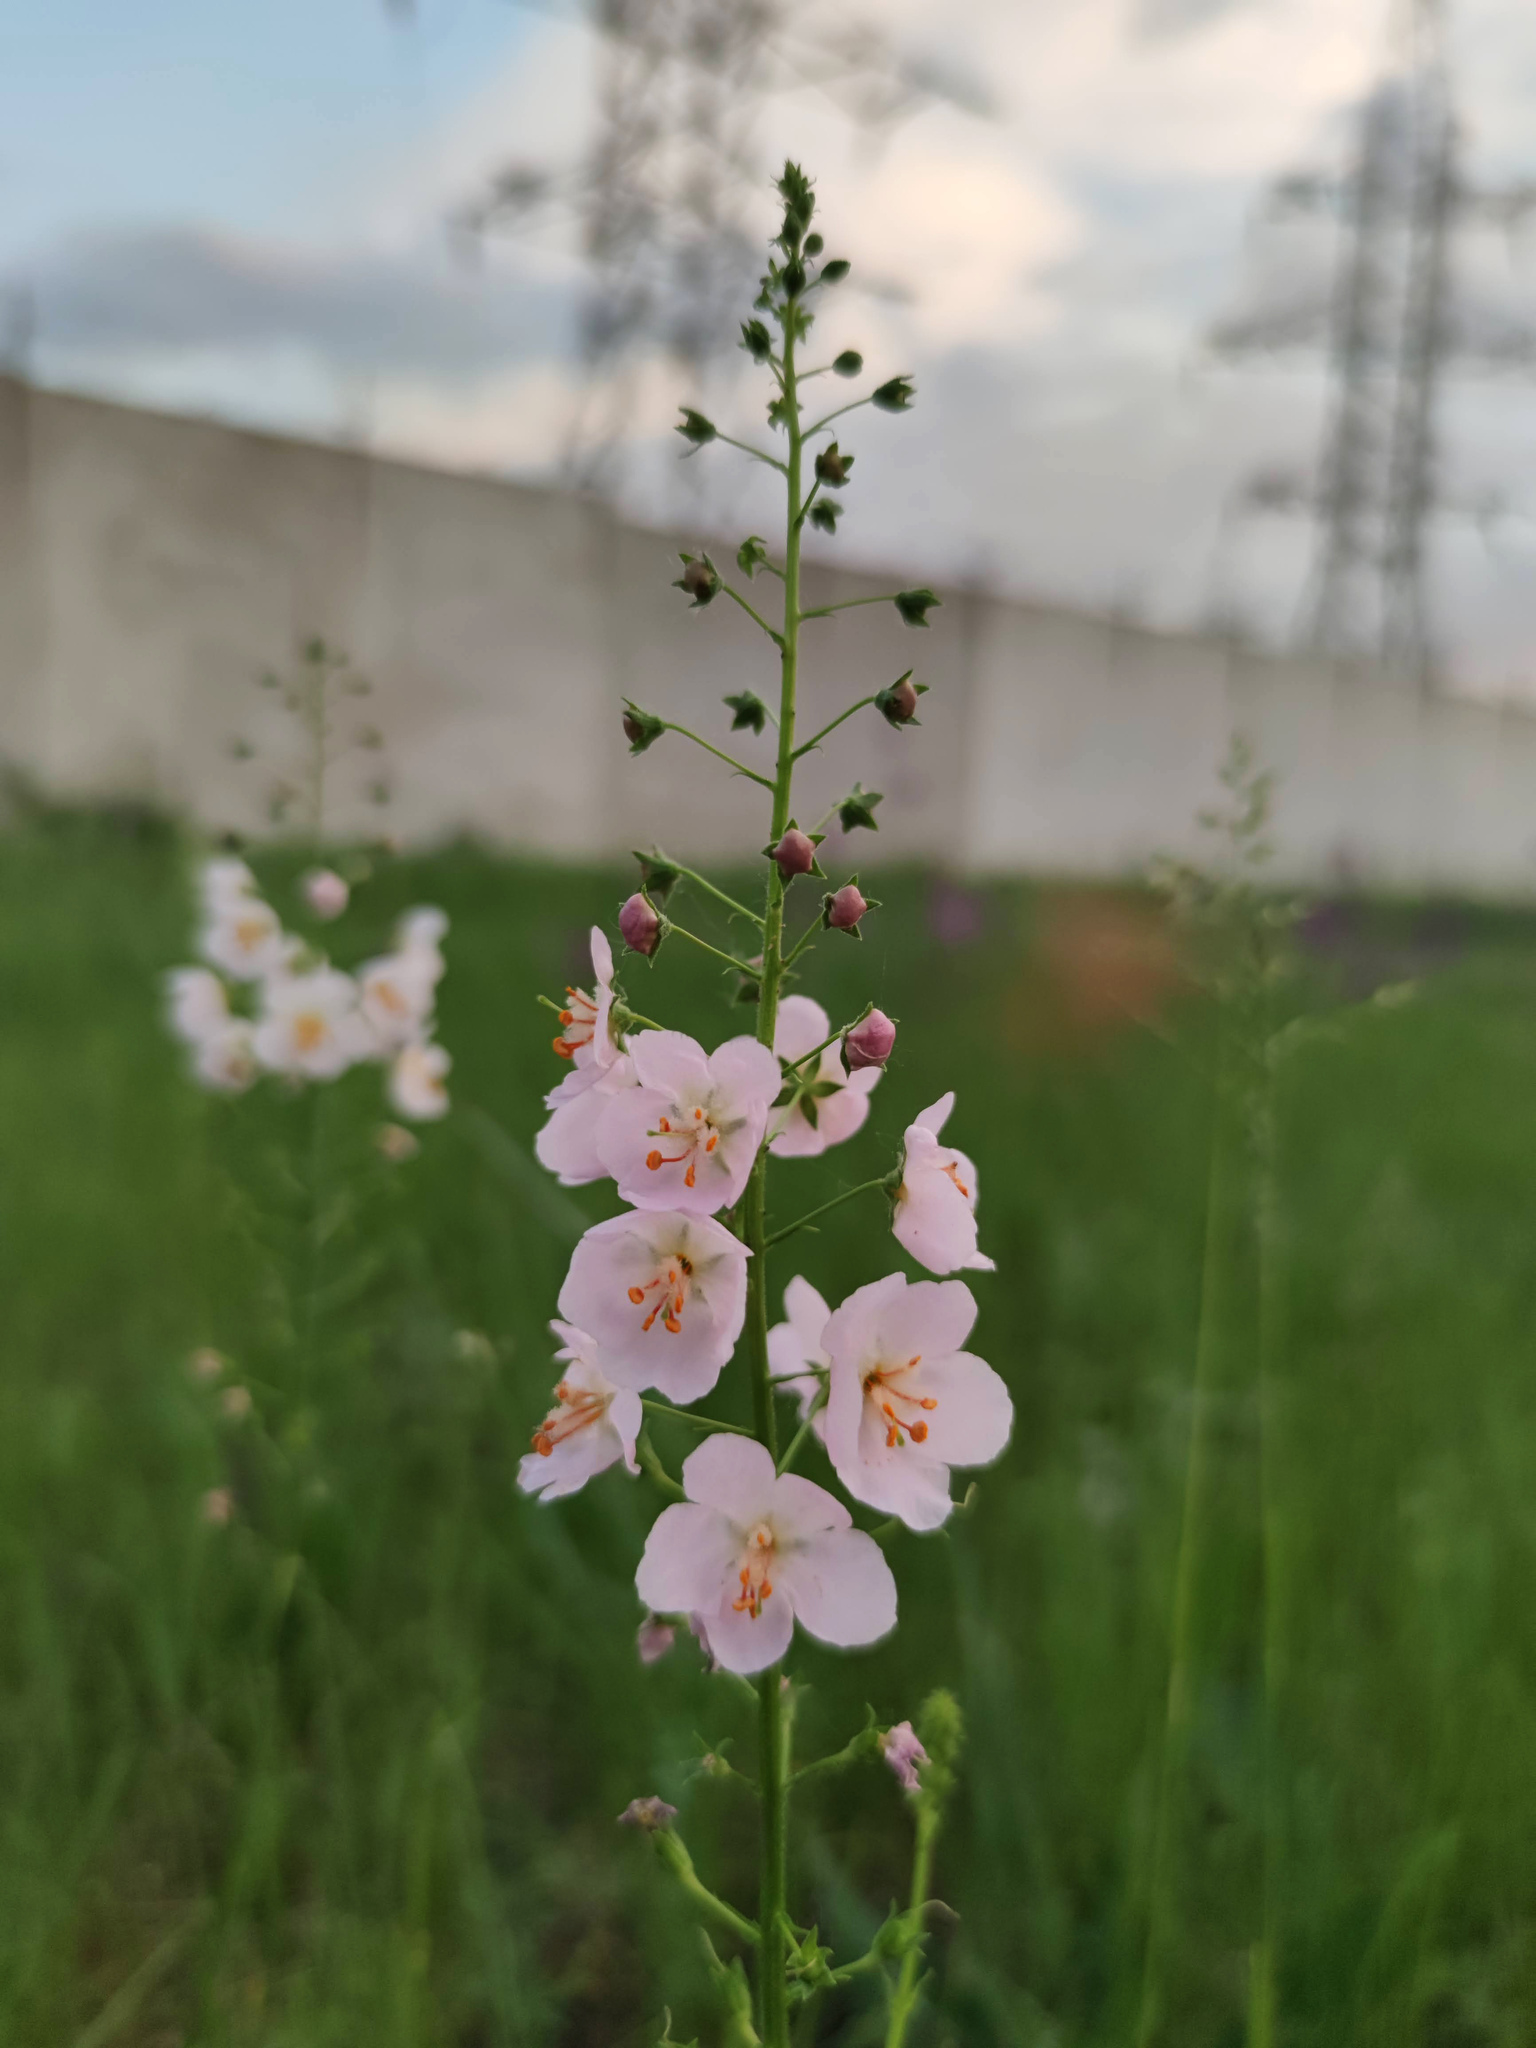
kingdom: Plantae
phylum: Tracheophyta
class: Magnoliopsida
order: Lamiales
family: Scrophulariaceae
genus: Verbascum
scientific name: Verbascum phoeniceum
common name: Purple mullein
